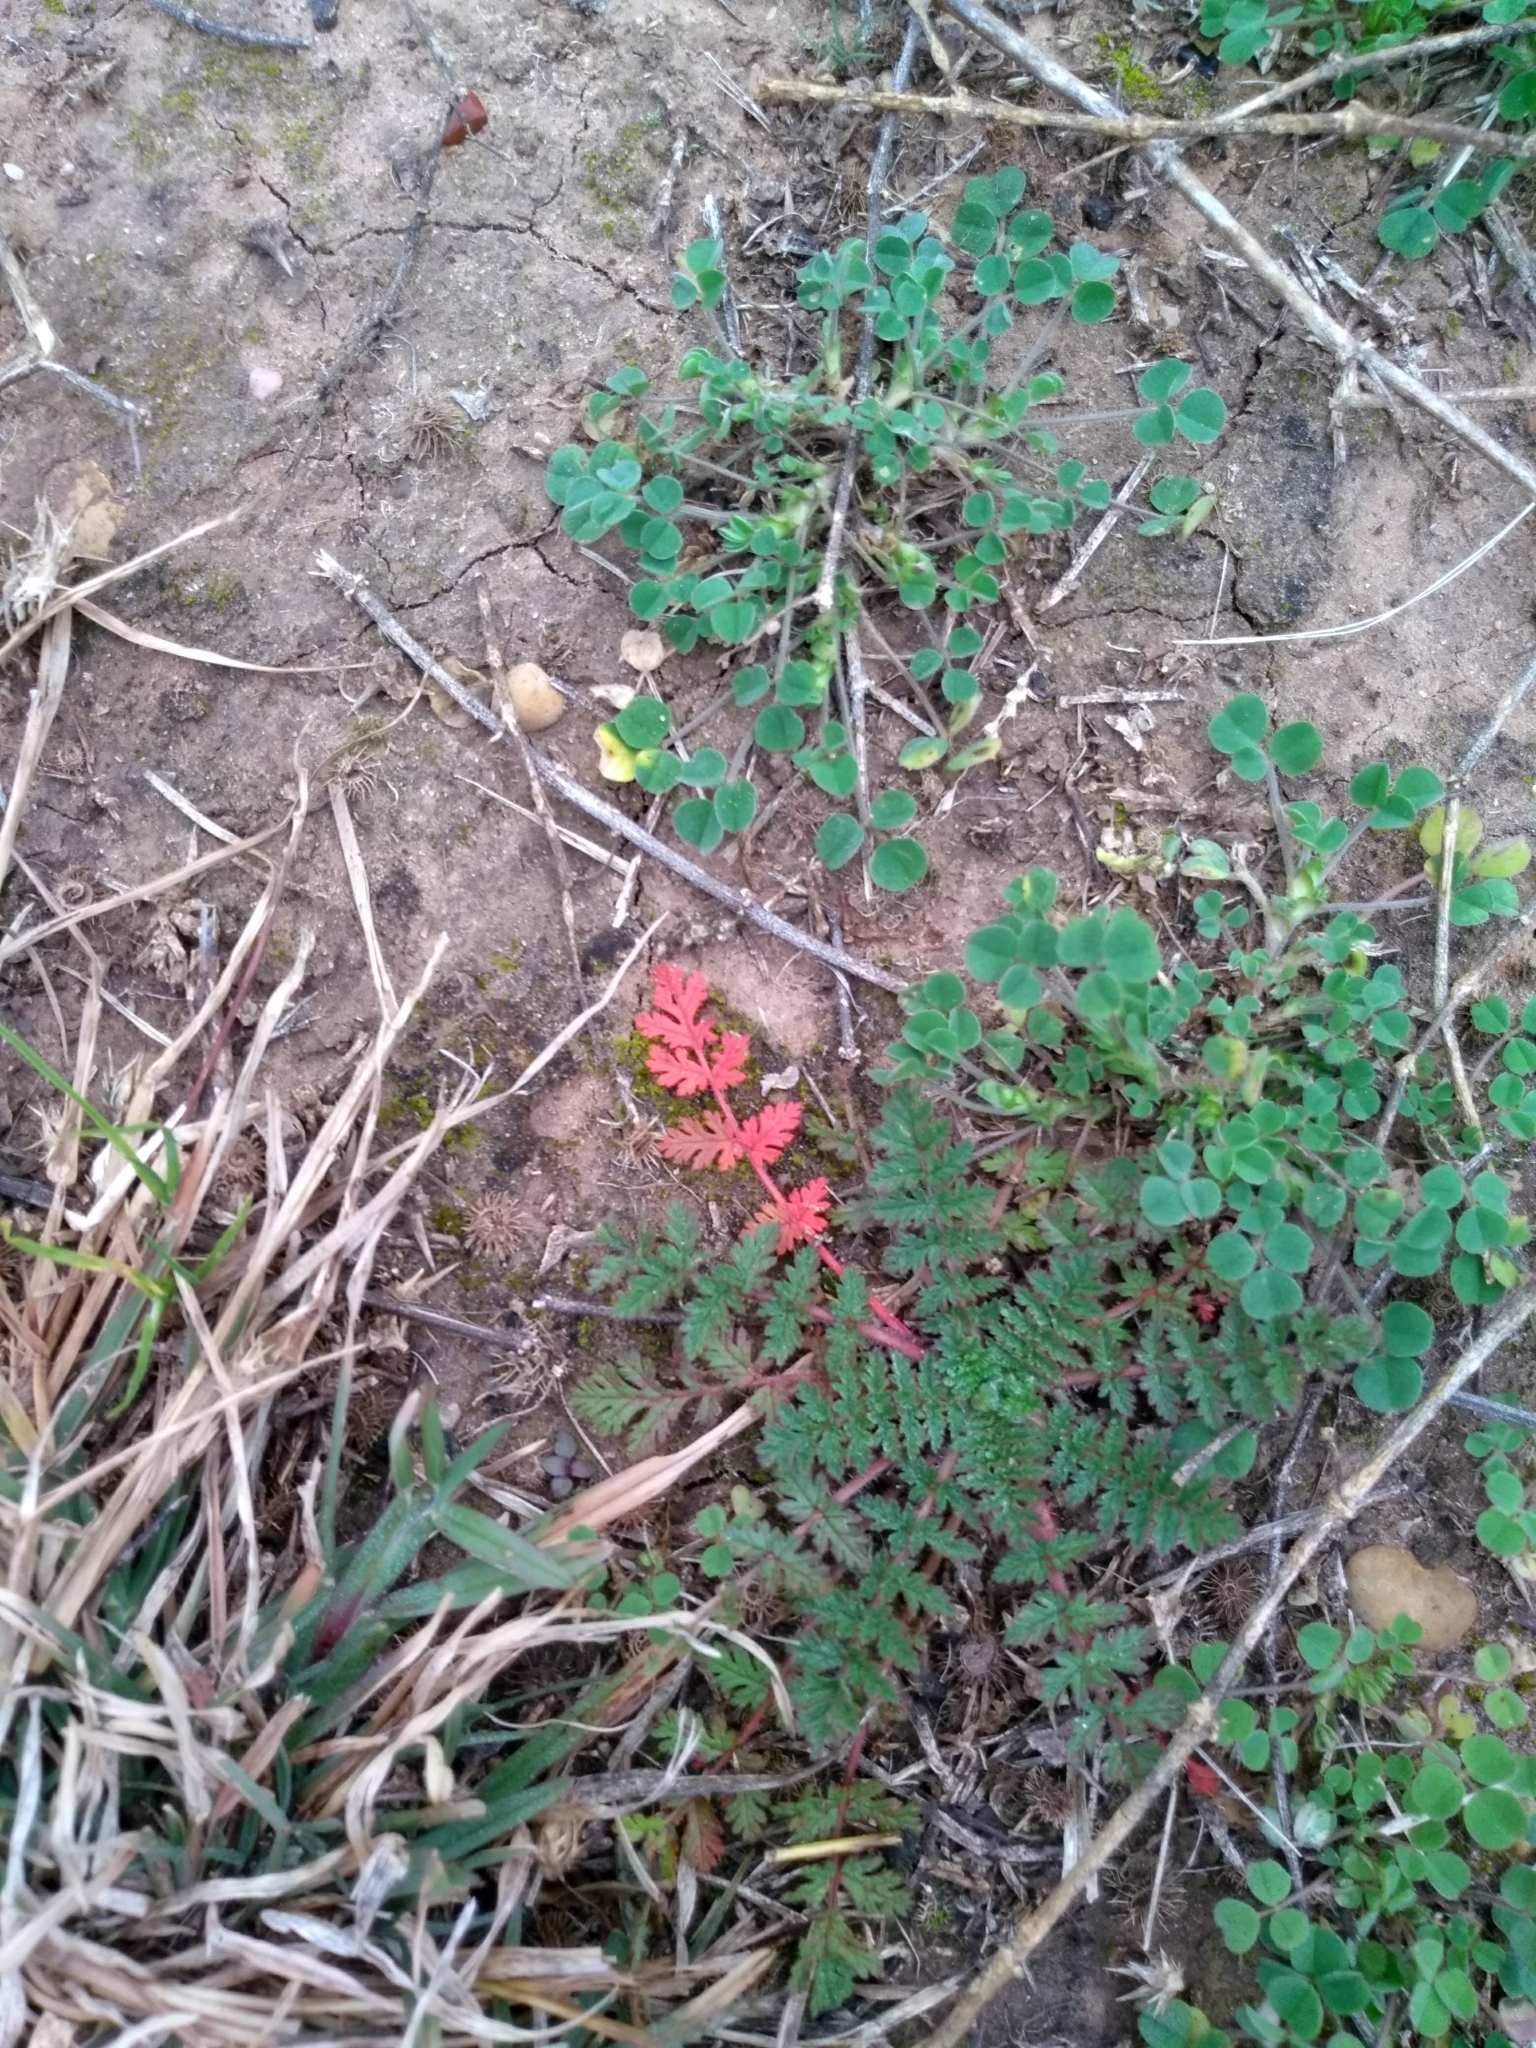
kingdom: Plantae
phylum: Tracheophyta
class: Magnoliopsida
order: Geraniales
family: Geraniaceae
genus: Erodium
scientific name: Erodium cicutarium
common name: Common stork's-bill
